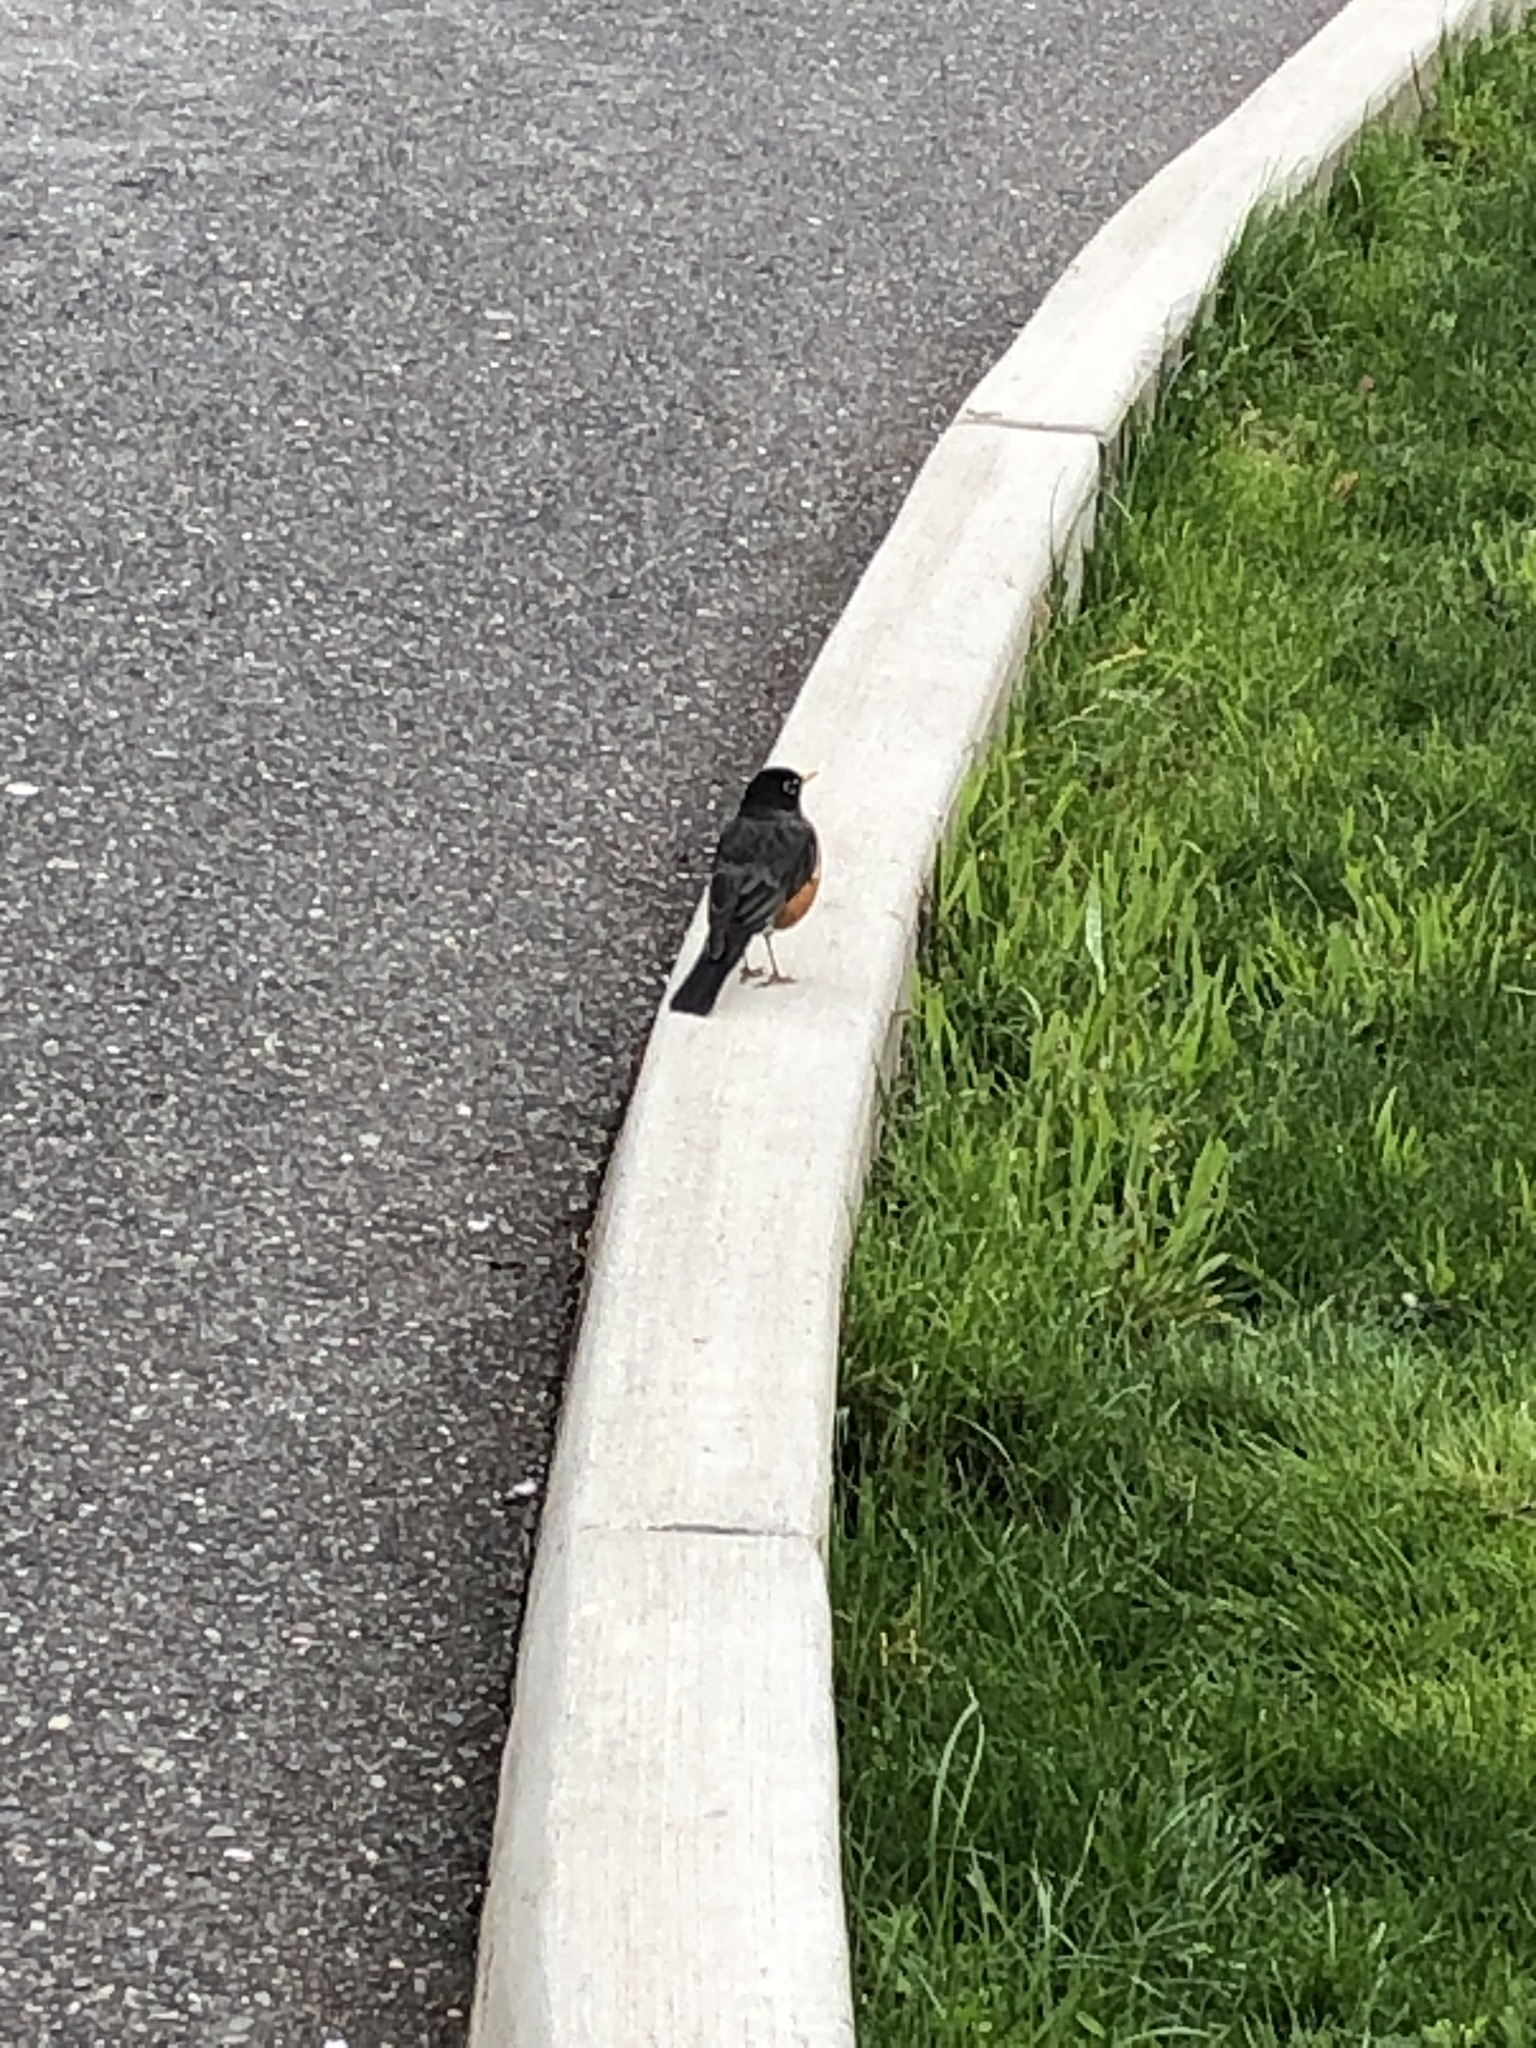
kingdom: Animalia
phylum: Chordata
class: Aves
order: Passeriformes
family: Turdidae
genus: Turdus
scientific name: Turdus migratorius
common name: American robin
